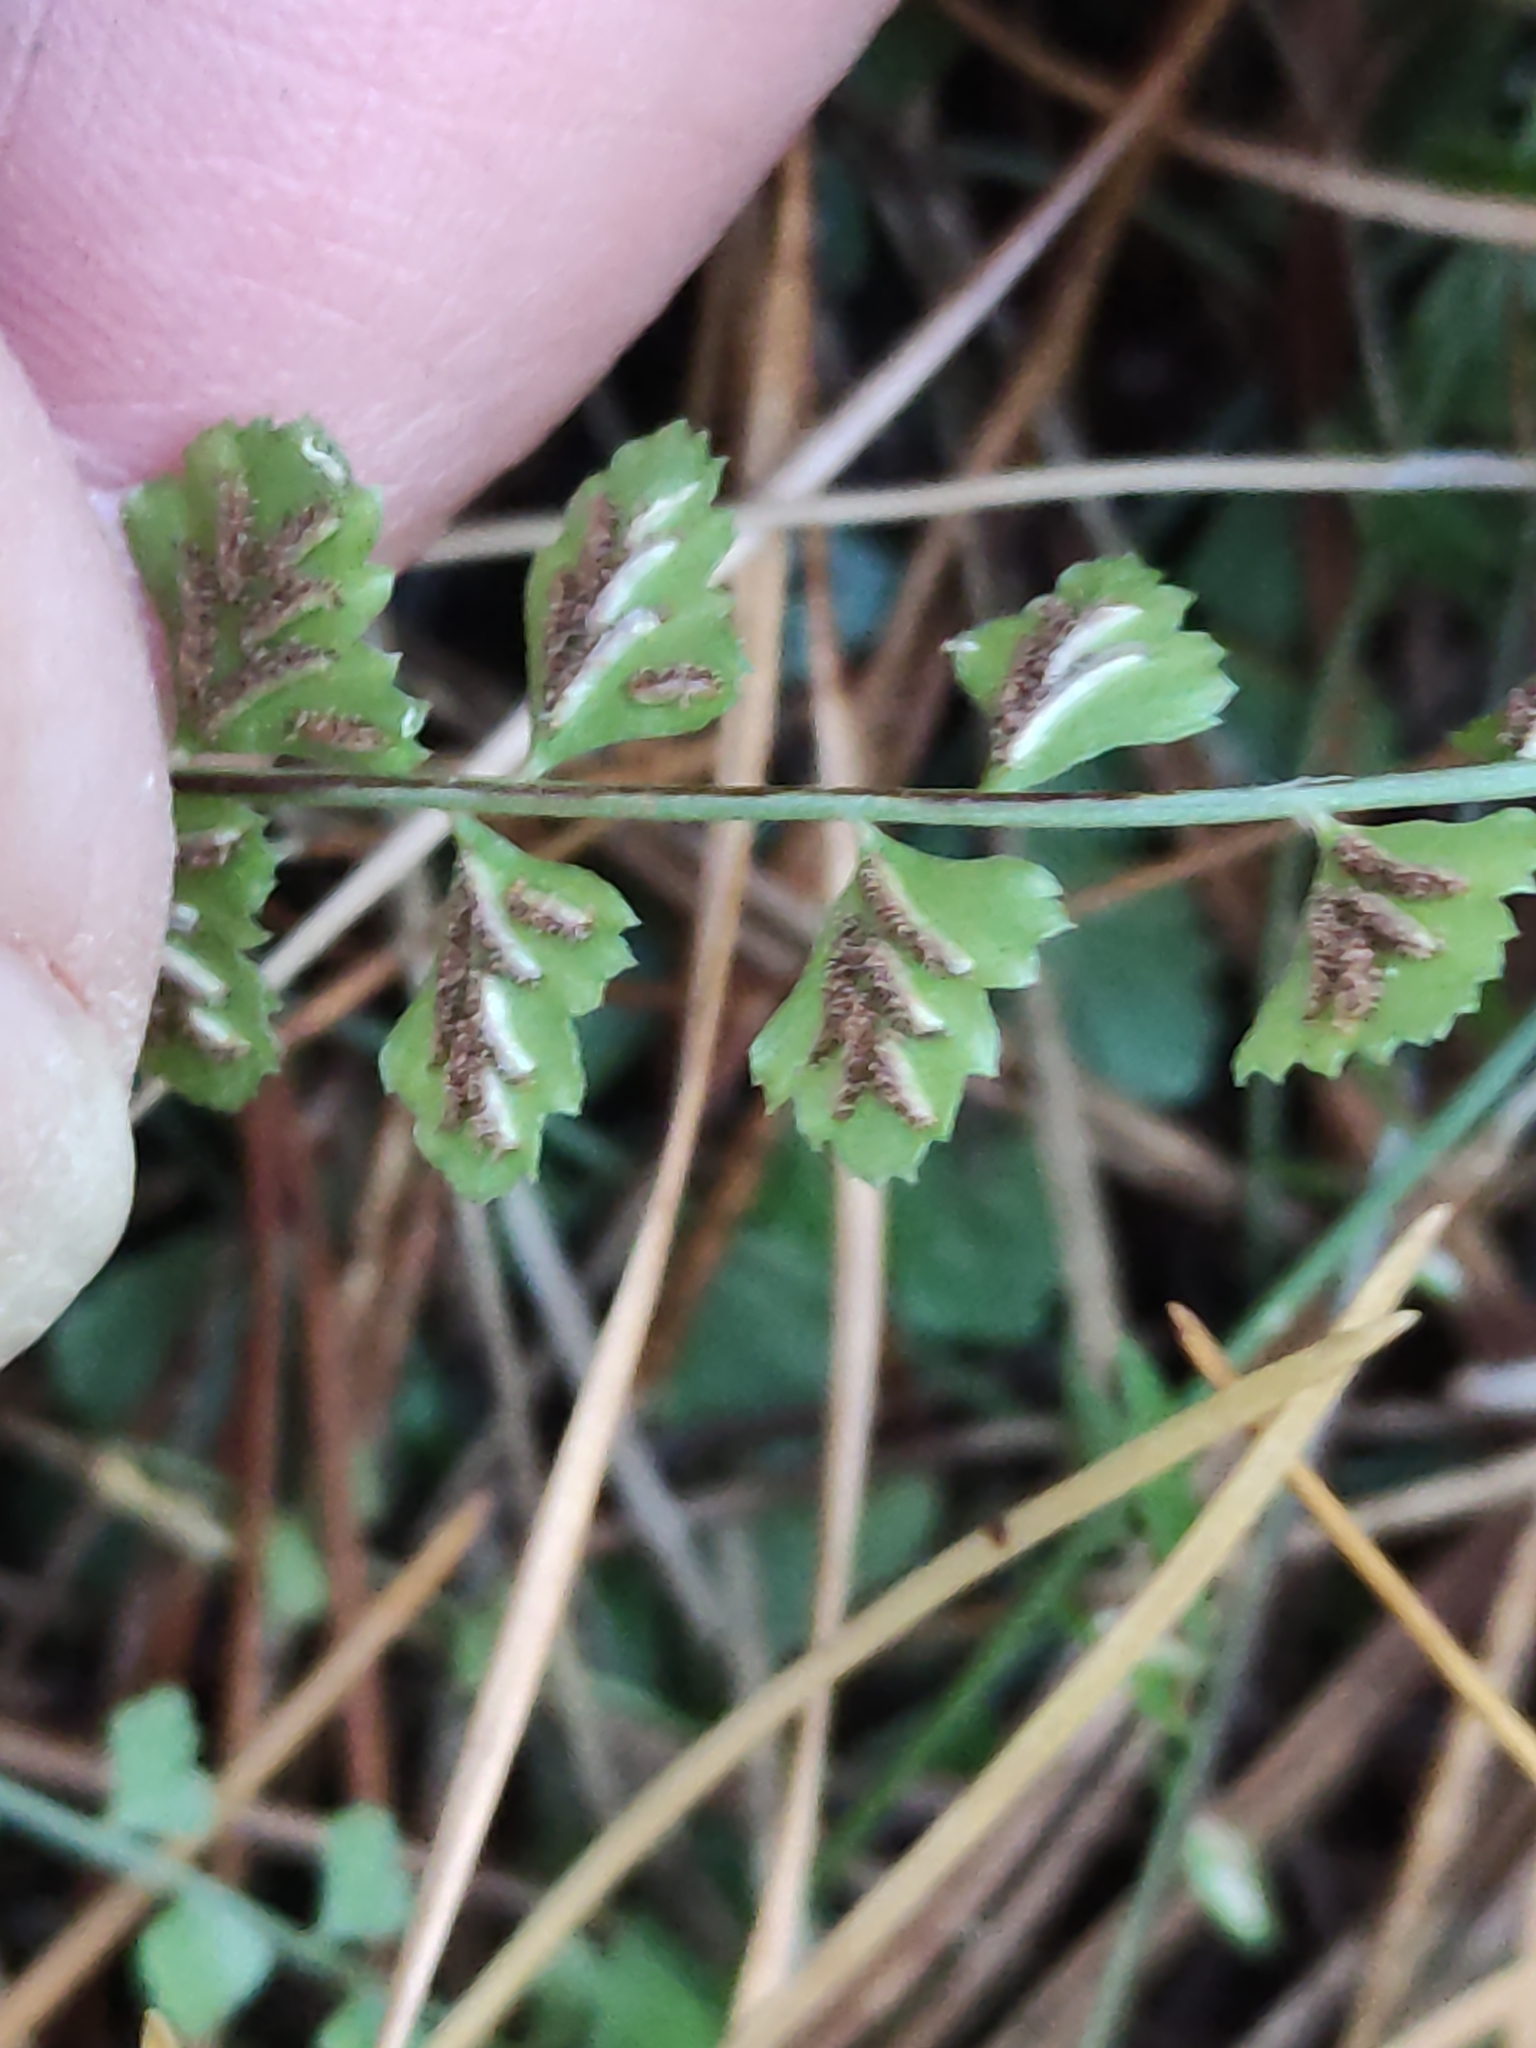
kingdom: Plantae
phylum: Tracheophyta
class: Polypodiopsida
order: Polypodiales
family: Aspleniaceae
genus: Asplenium
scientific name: Asplenium flabellifolium
